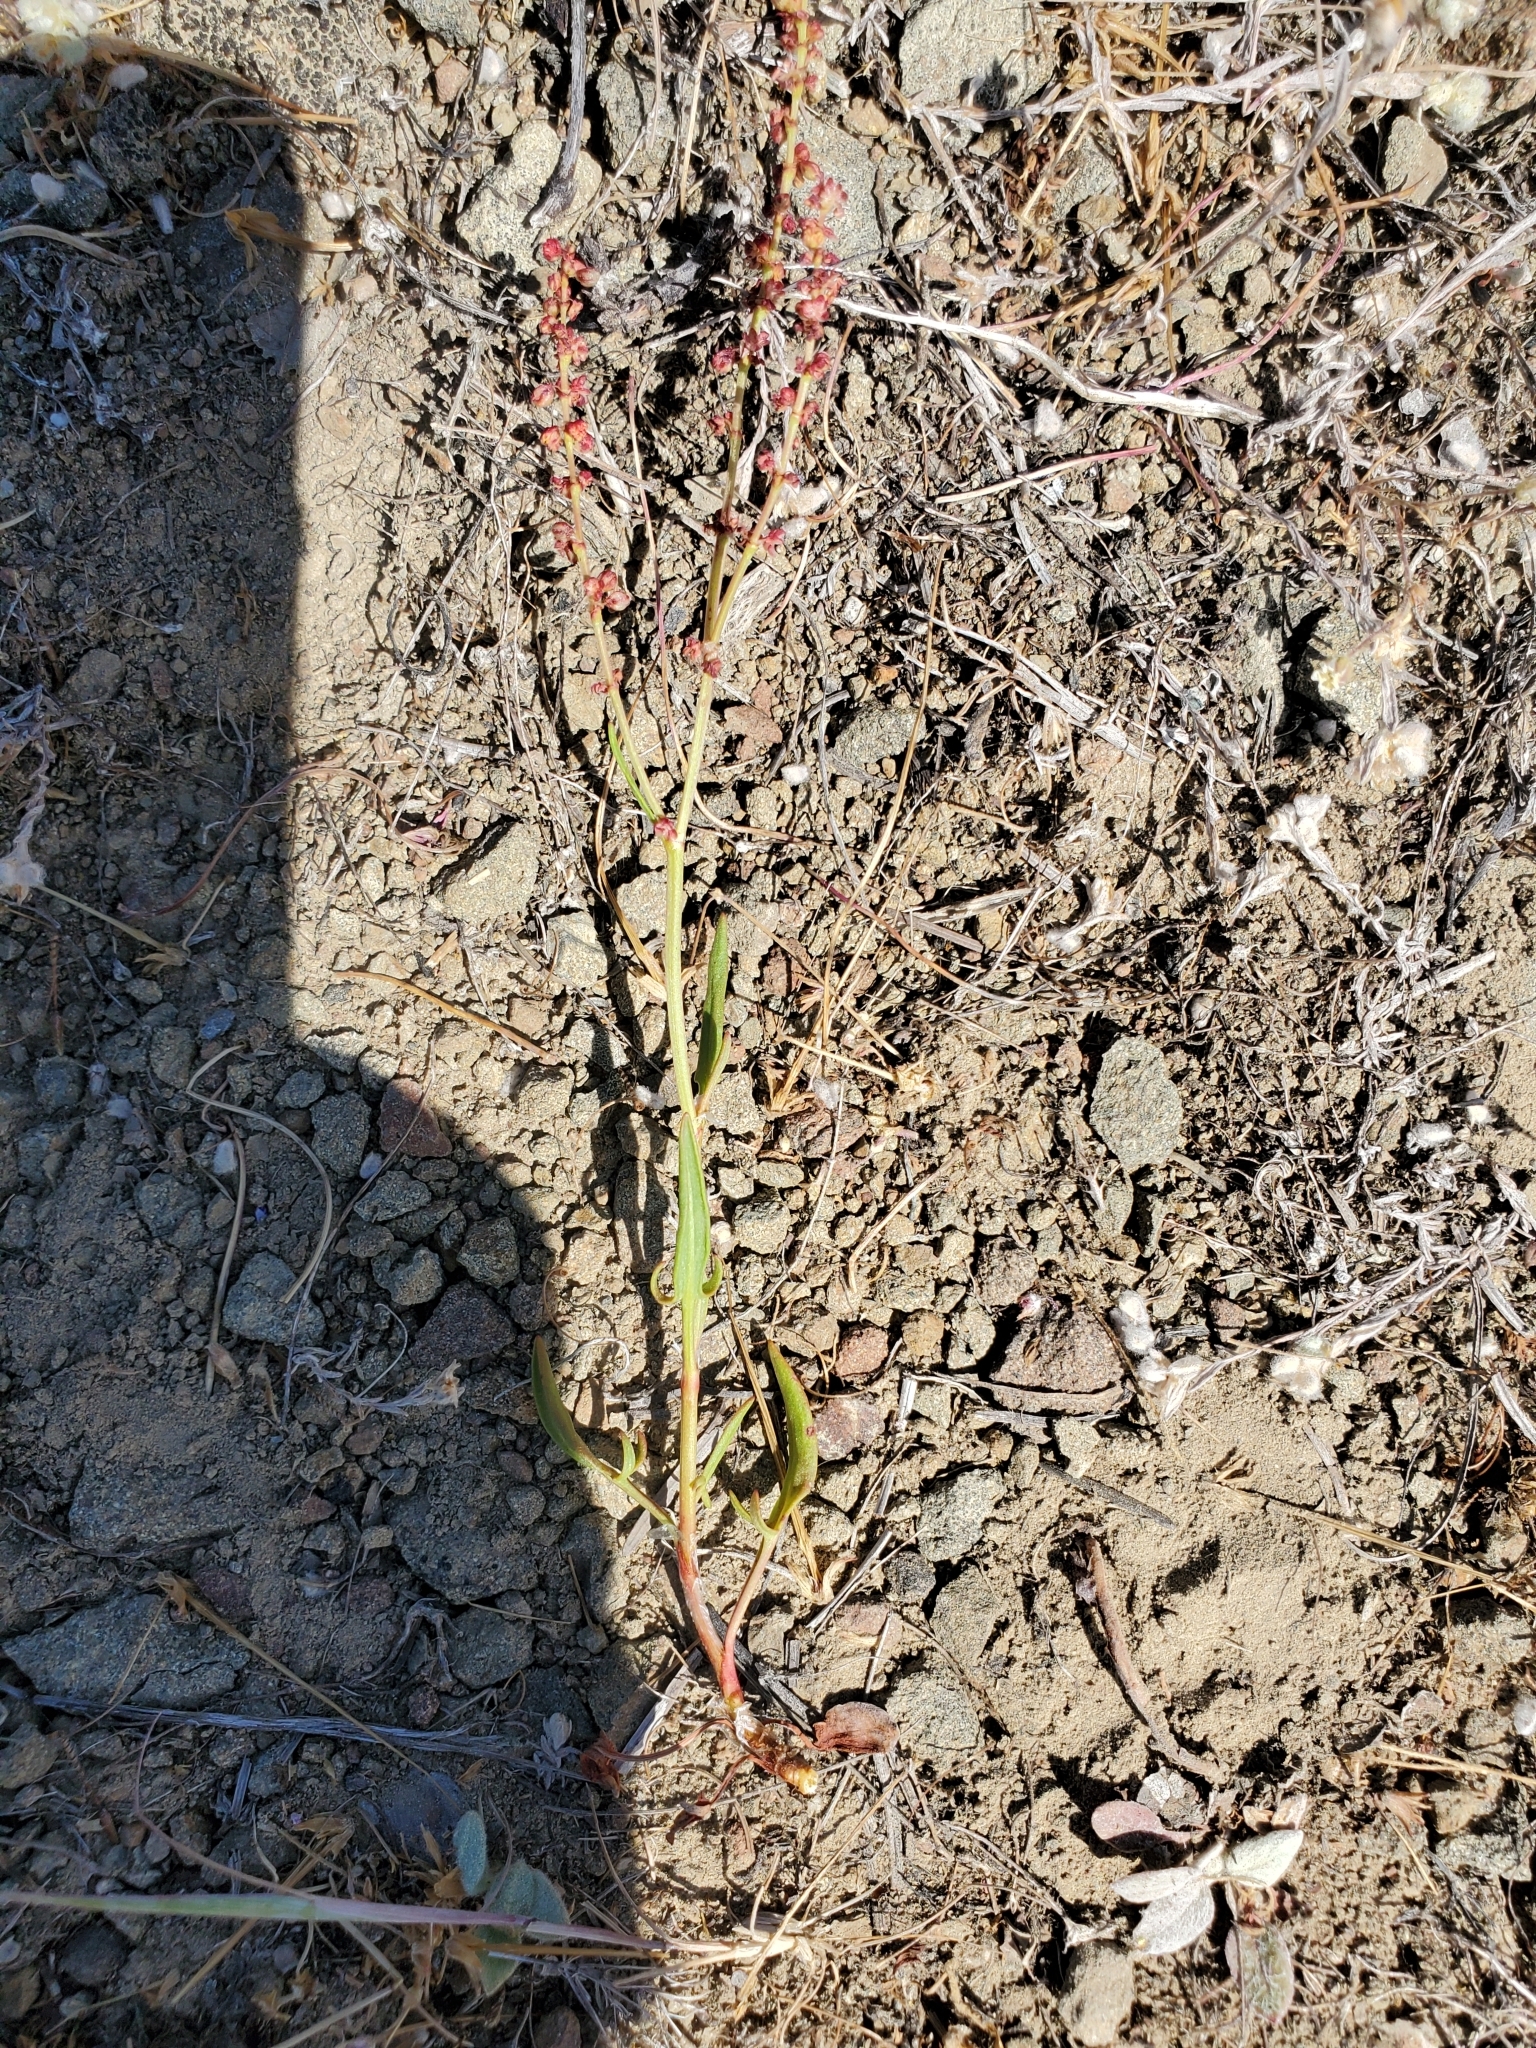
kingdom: Plantae
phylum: Tracheophyta
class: Magnoliopsida
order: Caryophyllales
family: Polygonaceae
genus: Rumex
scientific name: Rumex acetosella
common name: Common sheep sorrel
